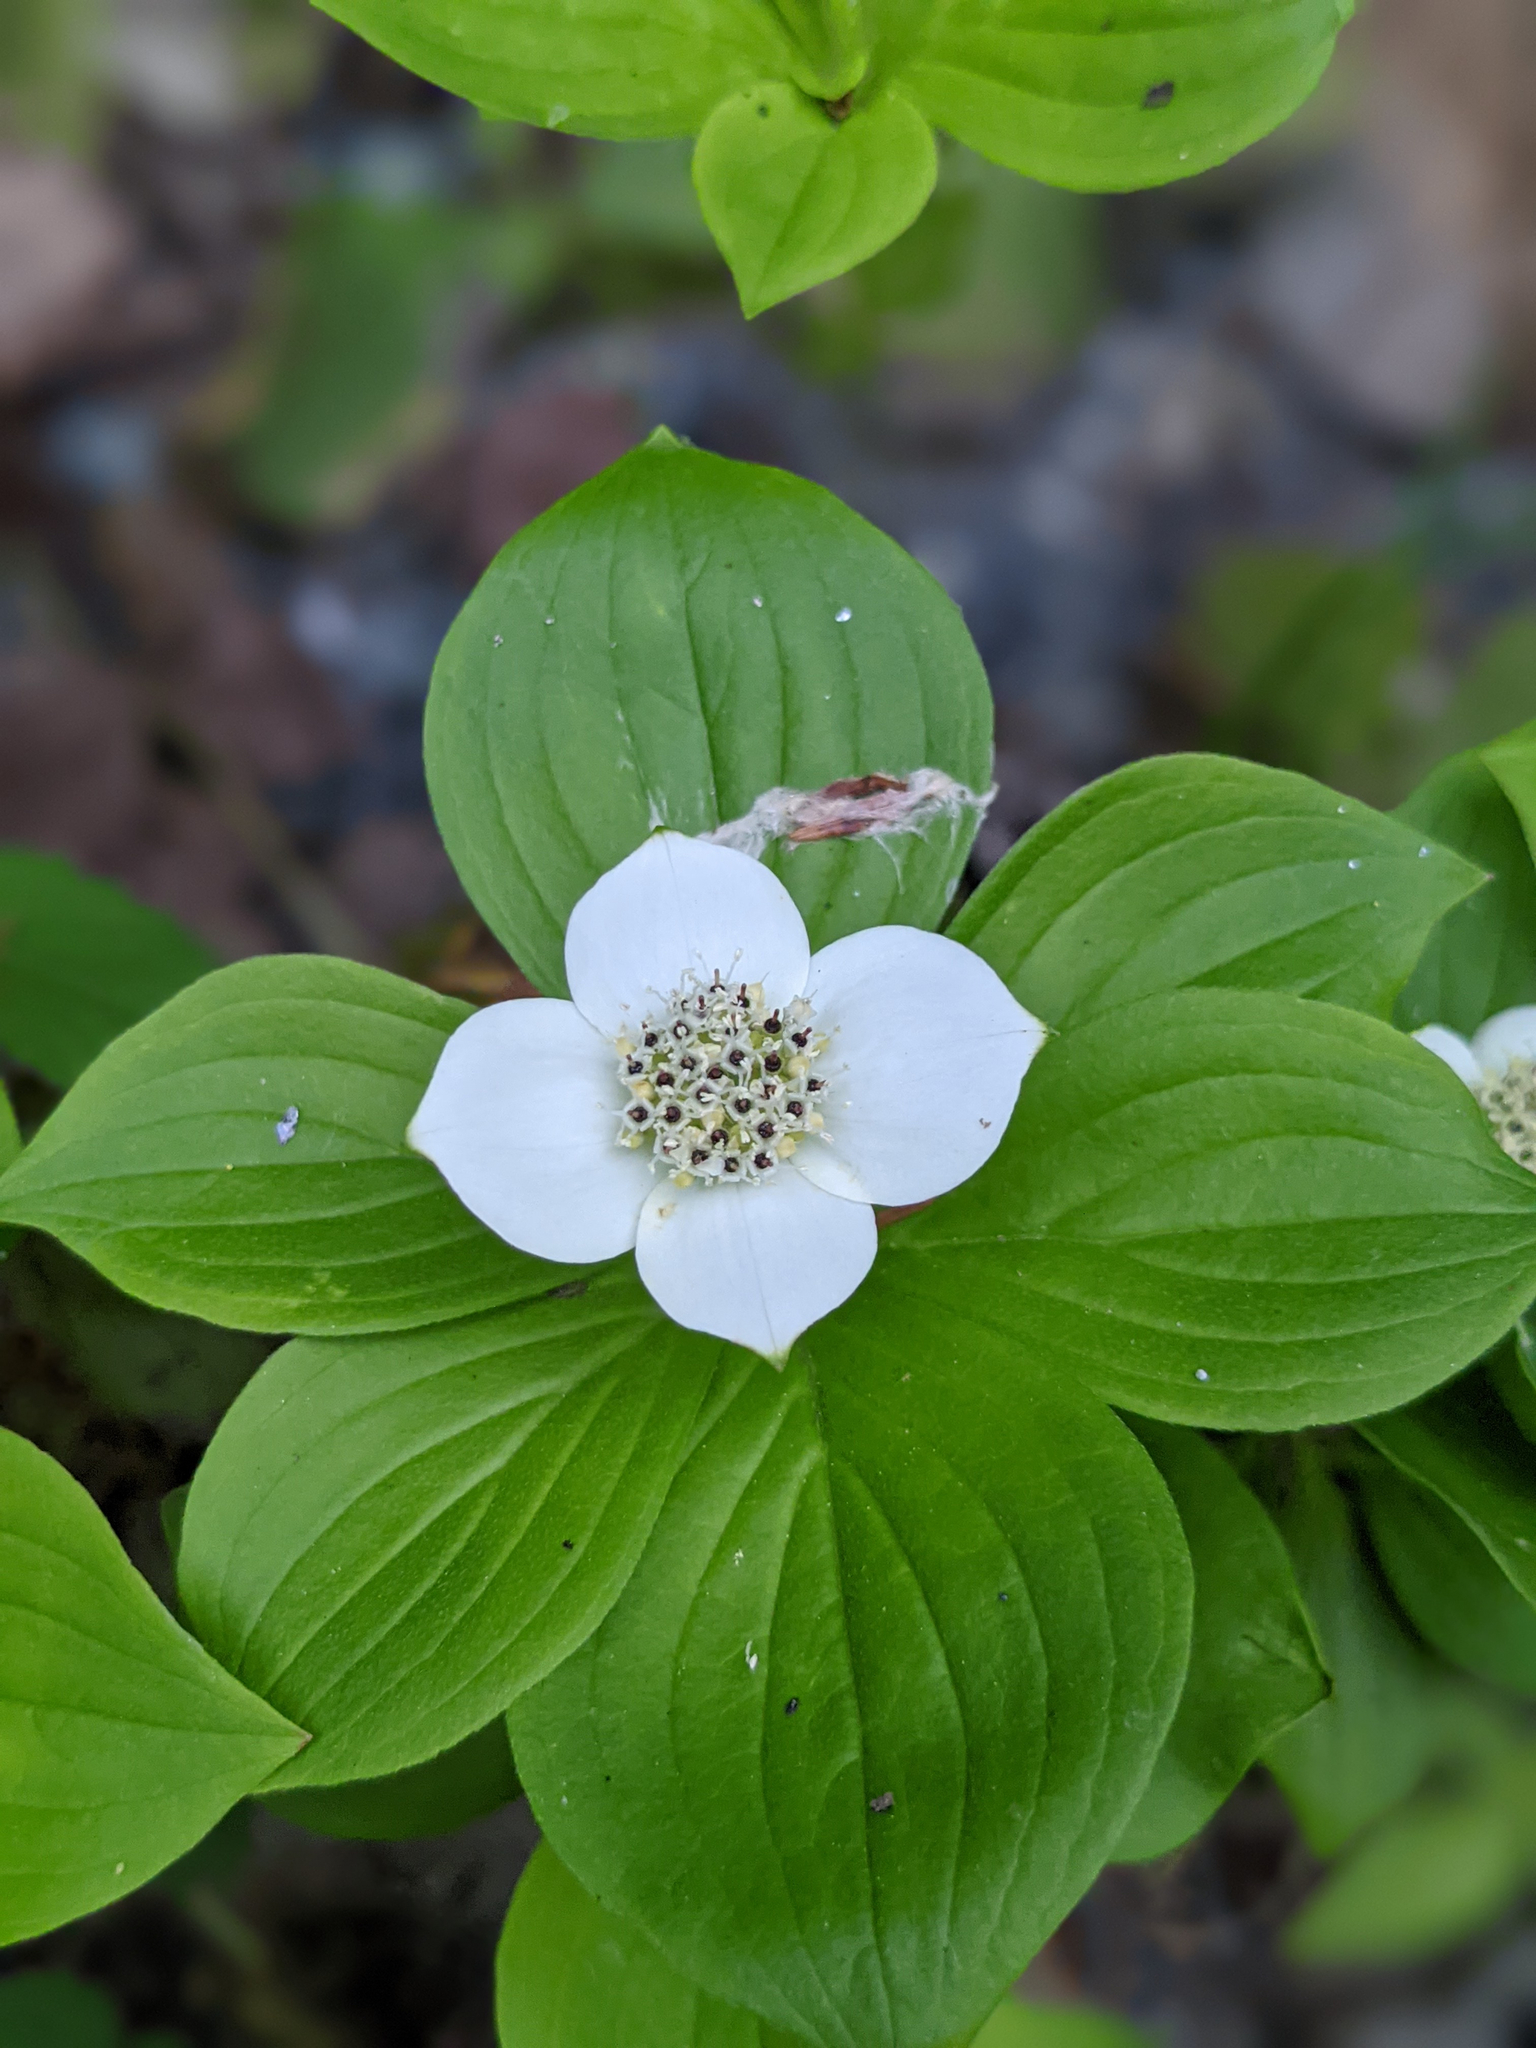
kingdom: Plantae
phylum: Tracheophyta
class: Magnoliopsida
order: Cornales
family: Cornaceae
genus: Cornus
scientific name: Cornus canadensis
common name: Creeping dogwood
